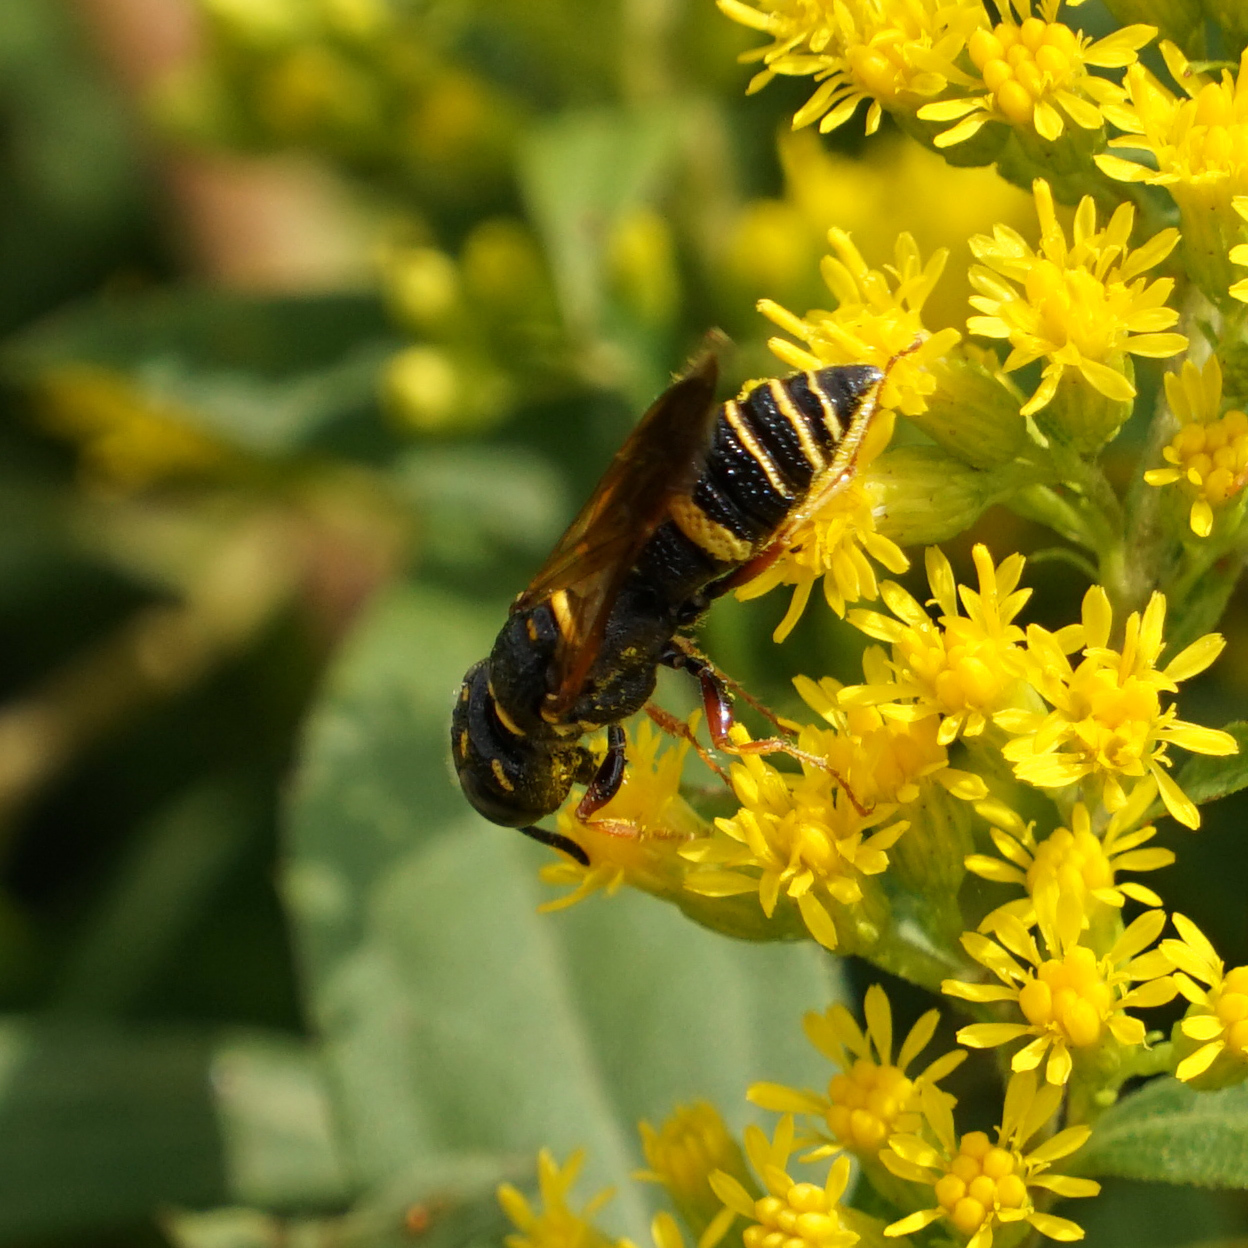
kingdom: Animalia
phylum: Arthropoda
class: Insecta
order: Hymenoptera
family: Crabronidae
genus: Philanthus
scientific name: Philanthus gibbosus
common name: Humped beewolf
